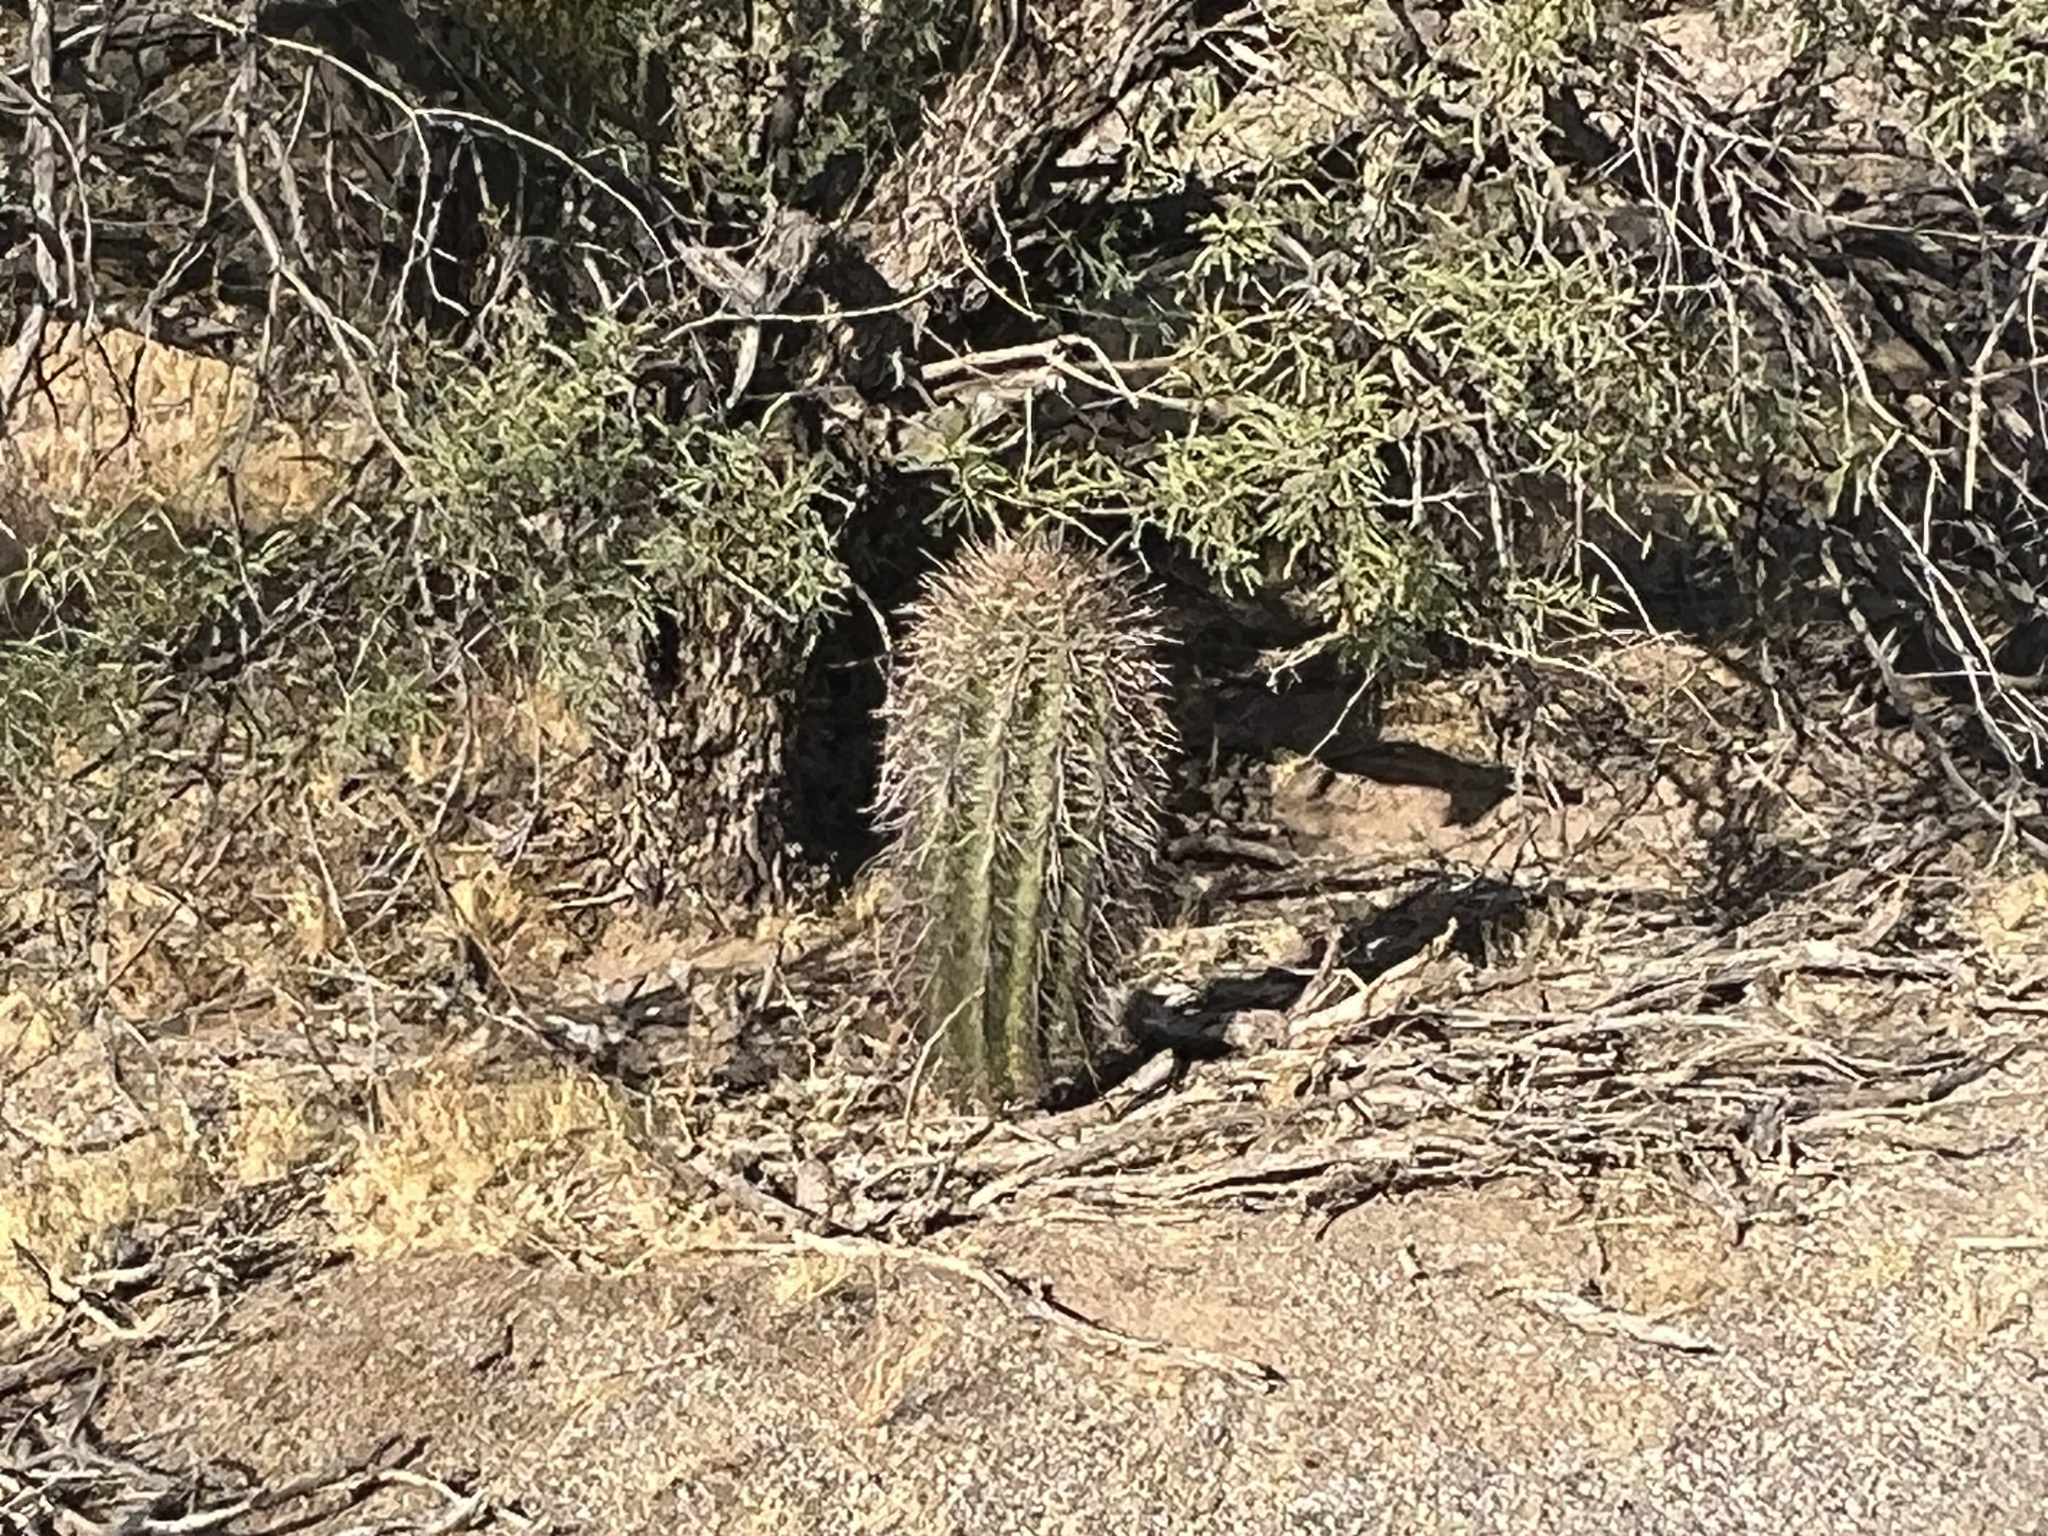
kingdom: Plantae
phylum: Tracheophyta
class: Magnoliopsida
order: Caryophyllales
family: Cactaceae
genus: Carnegiea
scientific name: Carnegiea gigantea
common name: Saguaro
